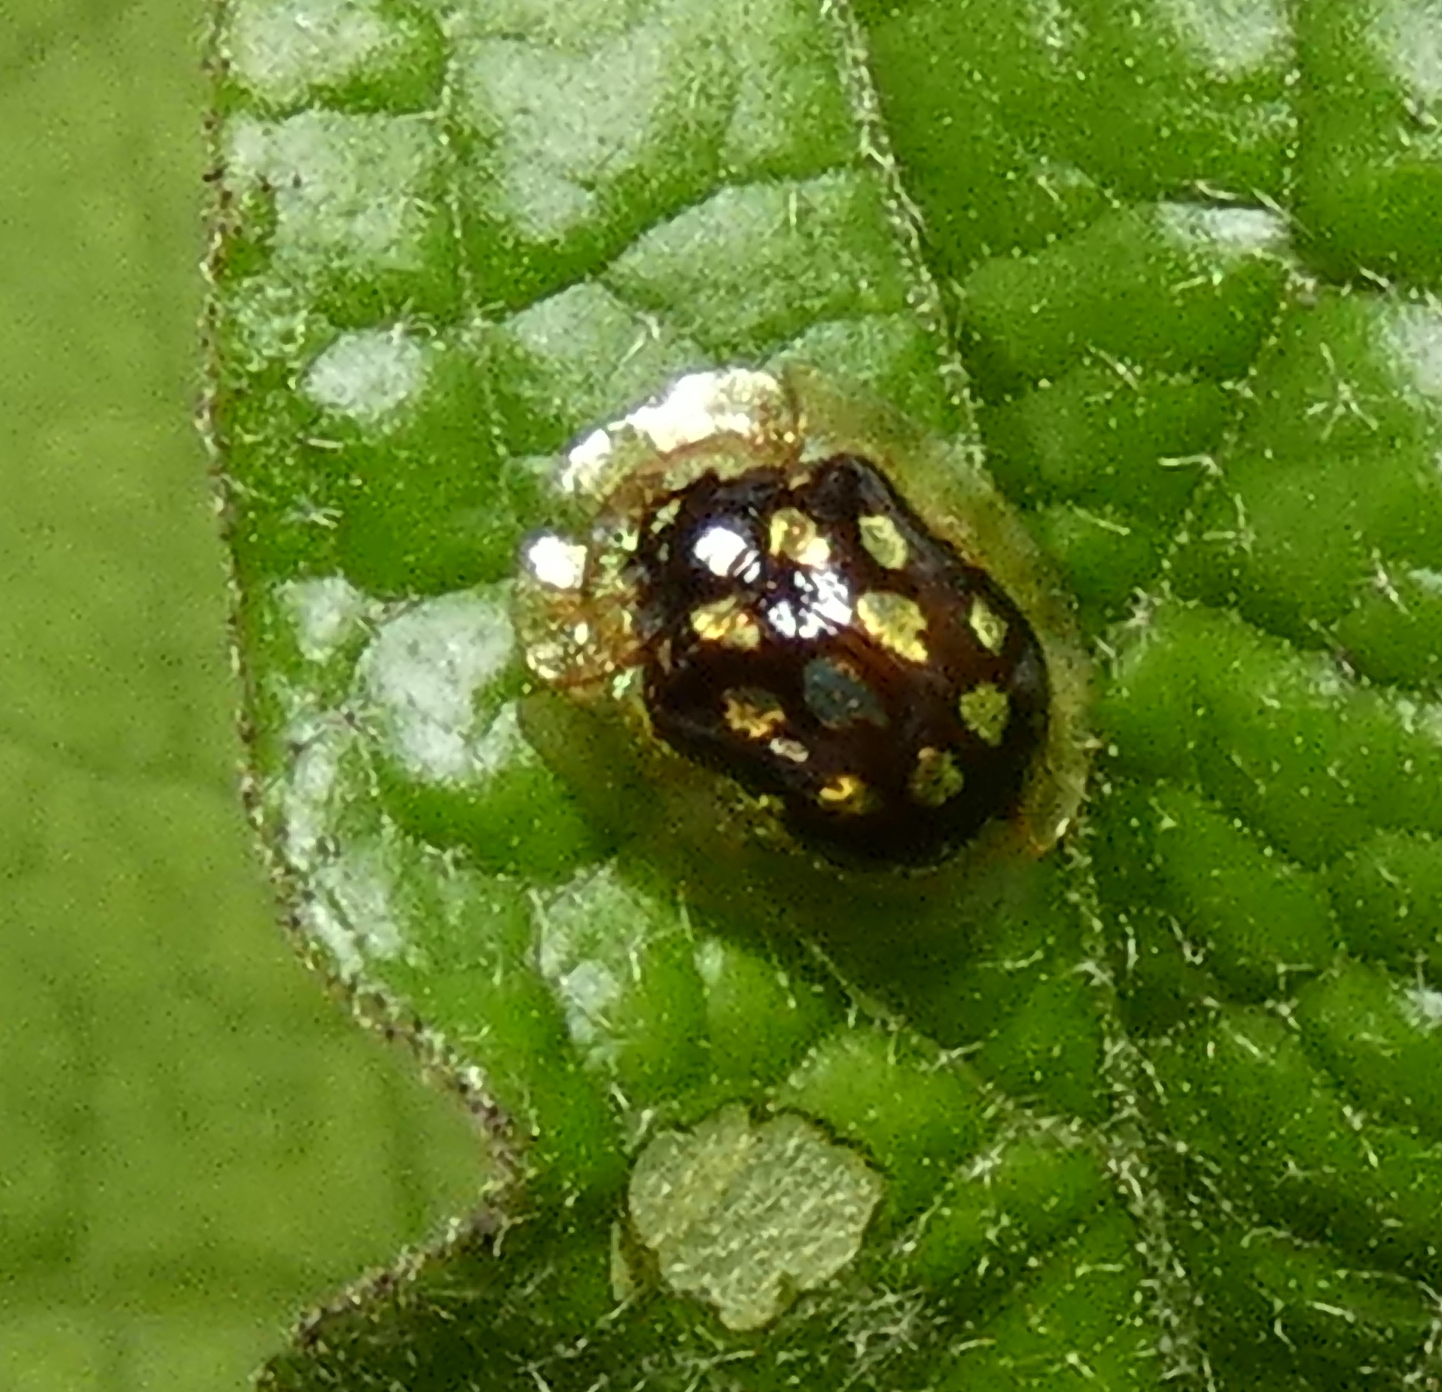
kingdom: Animalia
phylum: Arthropoda
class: Insecta
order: Coleoptera
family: Chrysomelidae
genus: Plagiometriona
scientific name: Plagiometriona microcera
